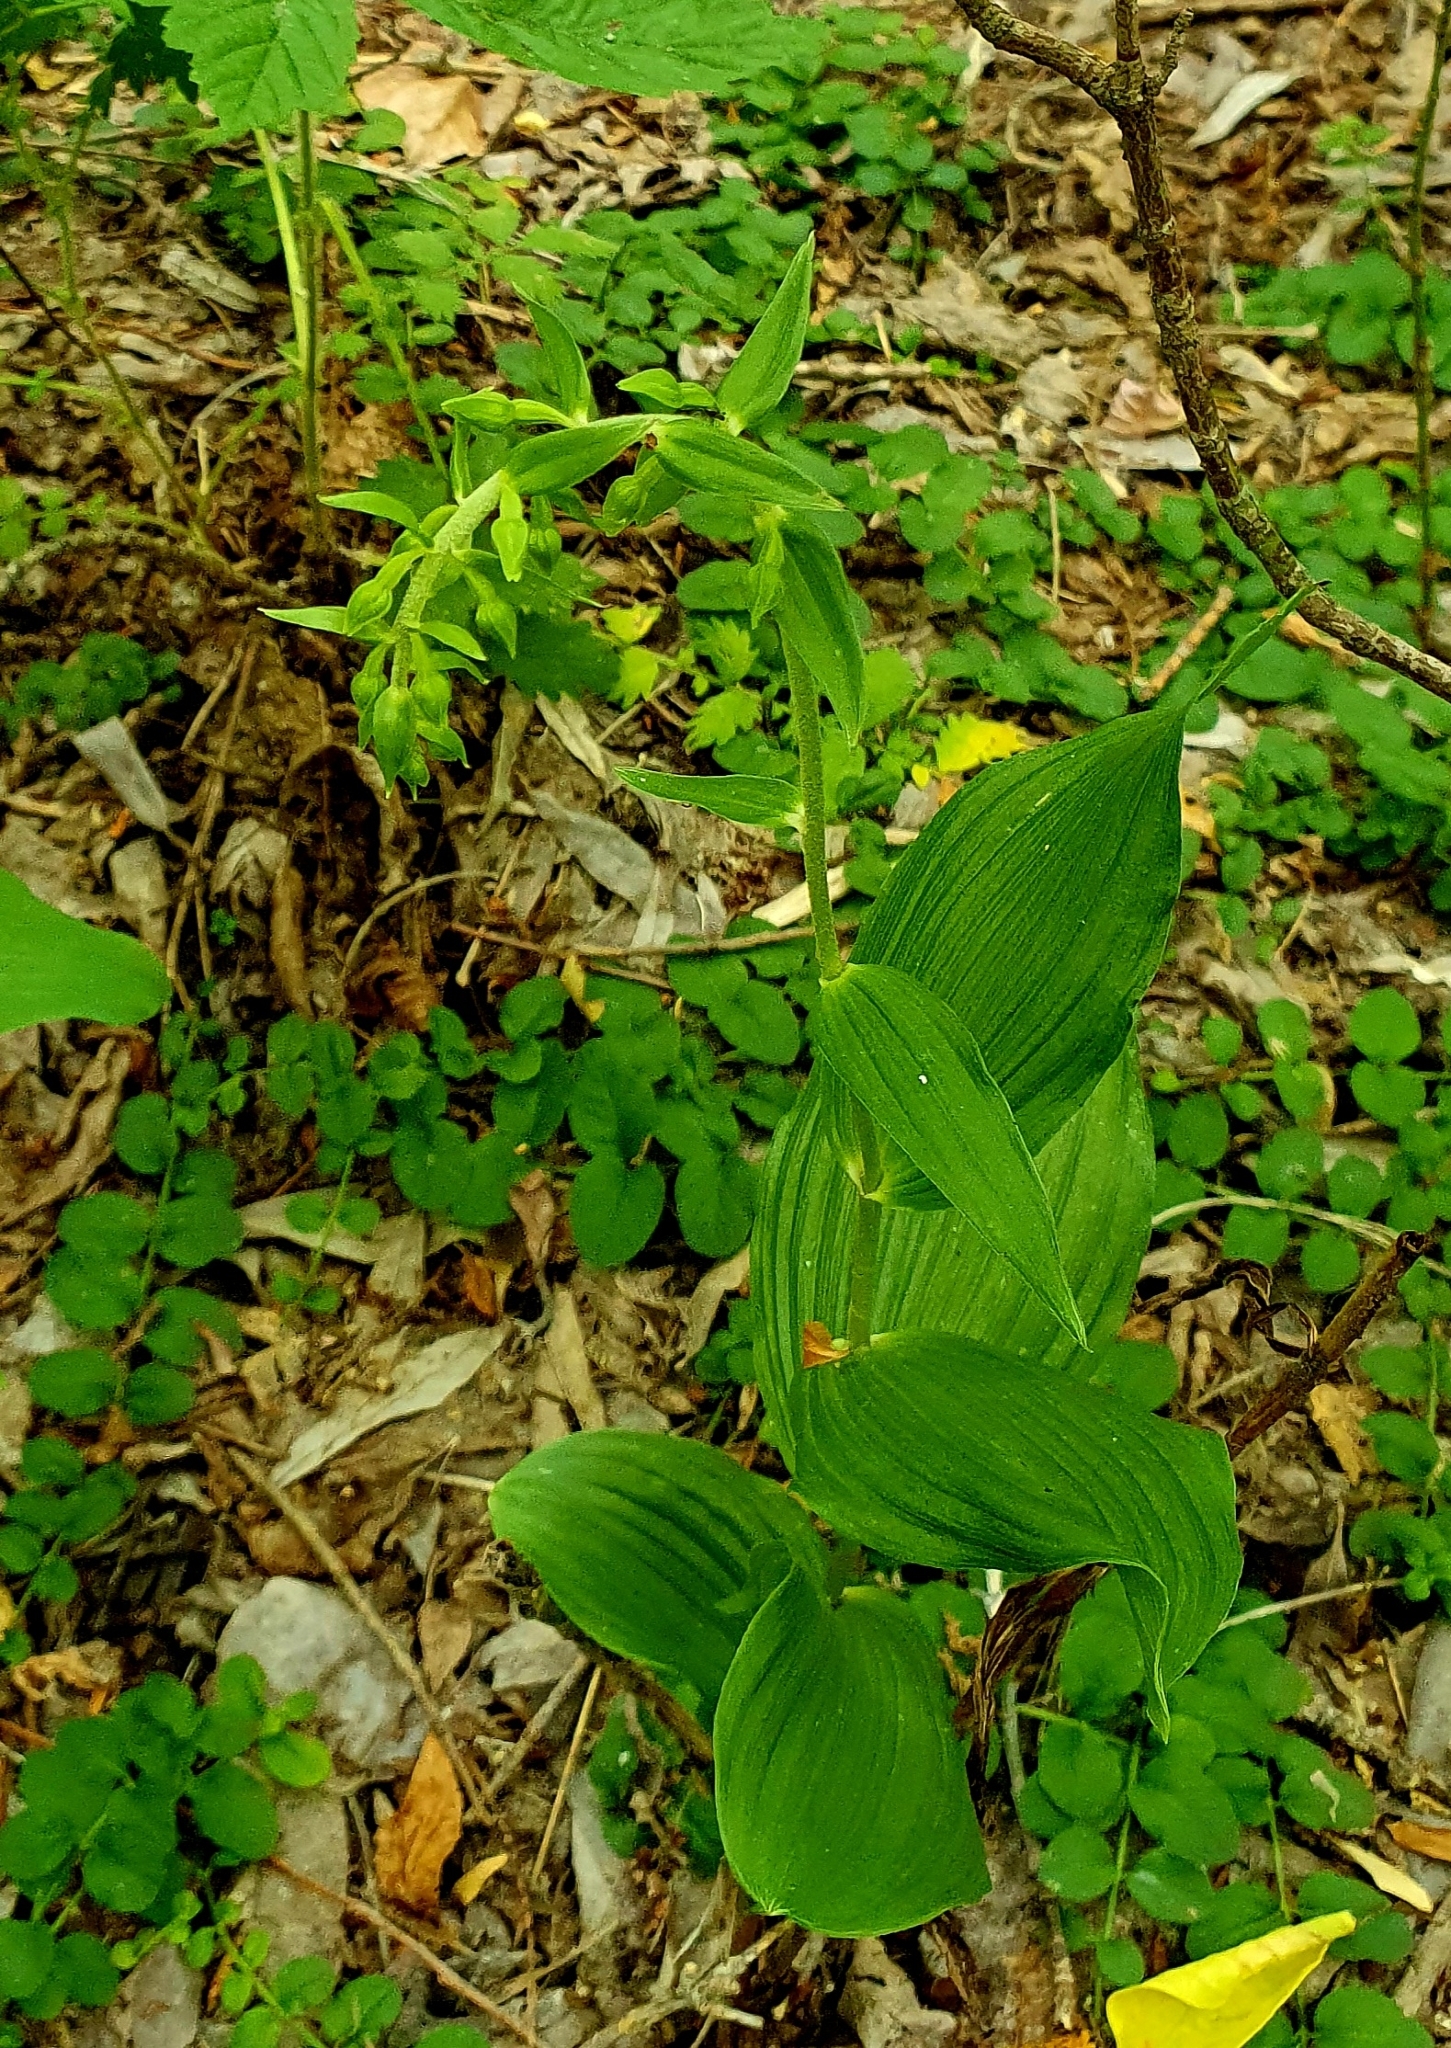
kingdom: Plantae
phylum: Tracheophyta
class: Liliopsida
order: Asparagales
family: Orchidaceae
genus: Epipactis
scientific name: Epipactis helleborine
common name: Broad-leaved helleborine
